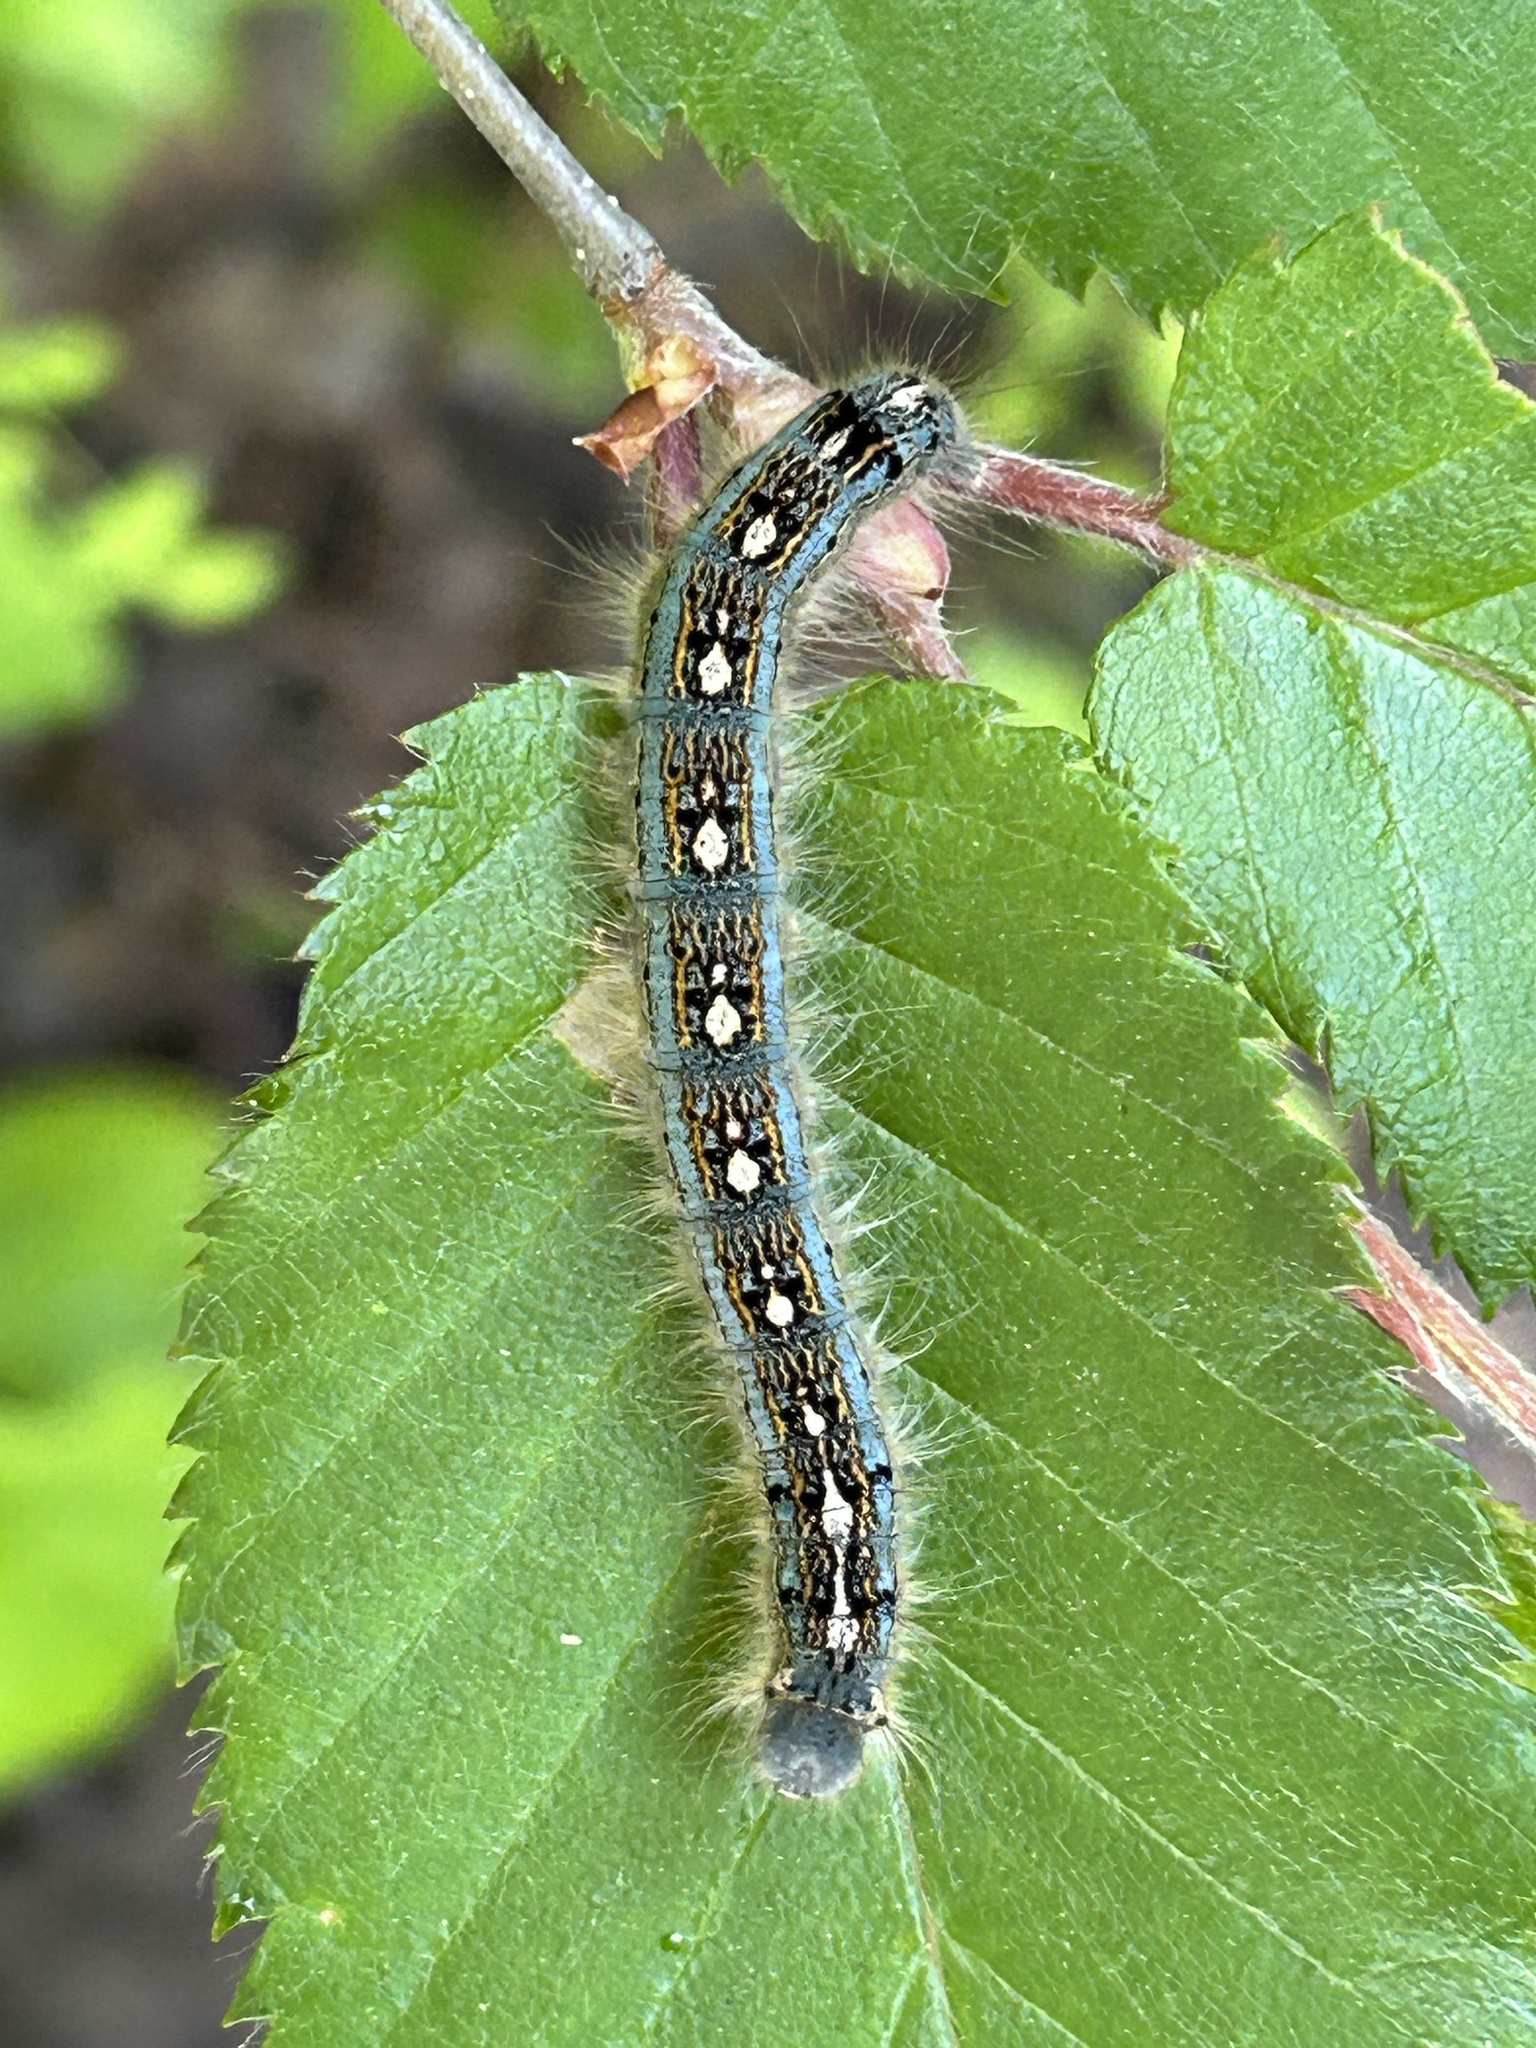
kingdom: Animalia
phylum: Arthropoda
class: Insecta
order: Lepidoptera
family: Lasiocampidae
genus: Malacosoma
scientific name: Malacosoma disstria
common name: Forest tent caterpillar
